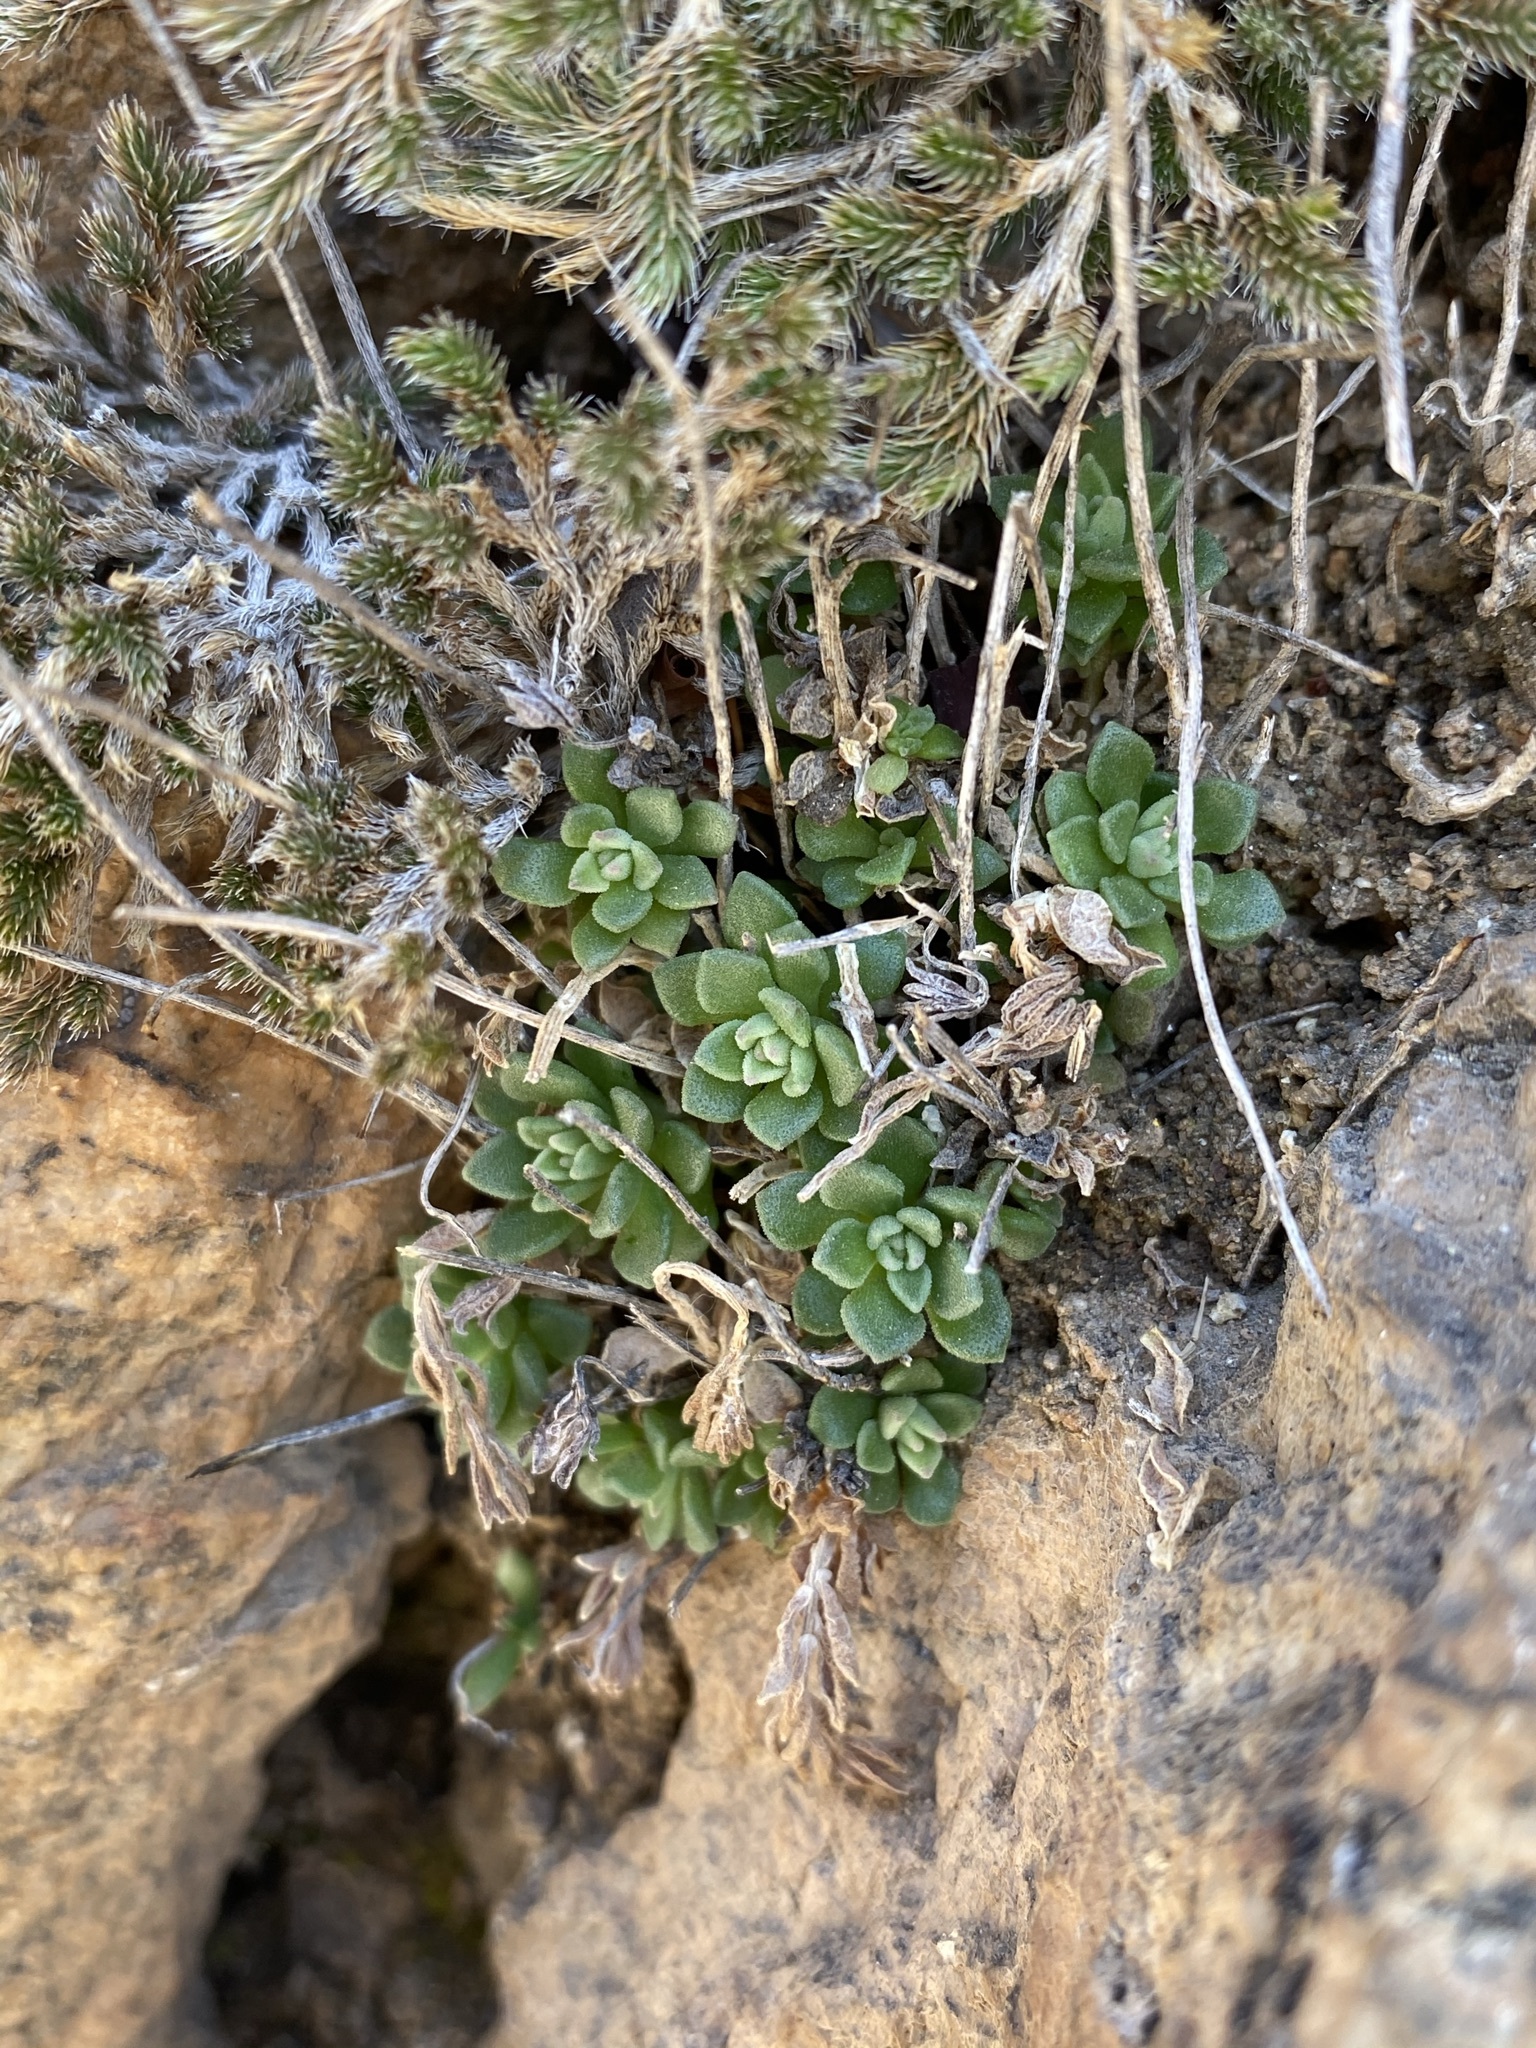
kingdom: Plantae
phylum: Tracheophyta
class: Magnoliopsida
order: Saxifragales
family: Crassulaceae
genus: Sedum
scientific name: Sedum cockerellii
